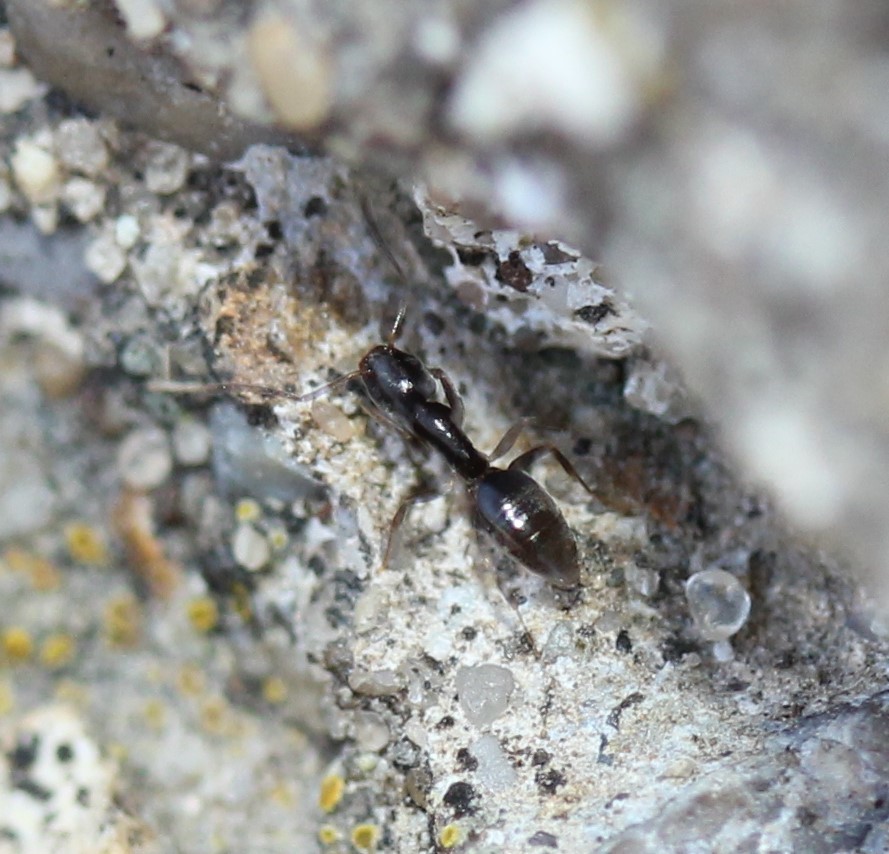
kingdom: Animalia
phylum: Arthropoda
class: Insecta
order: Hymenoptera
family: Formicidae
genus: Tapinoma
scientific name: Tapinoma sessile
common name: Odorous house ant
